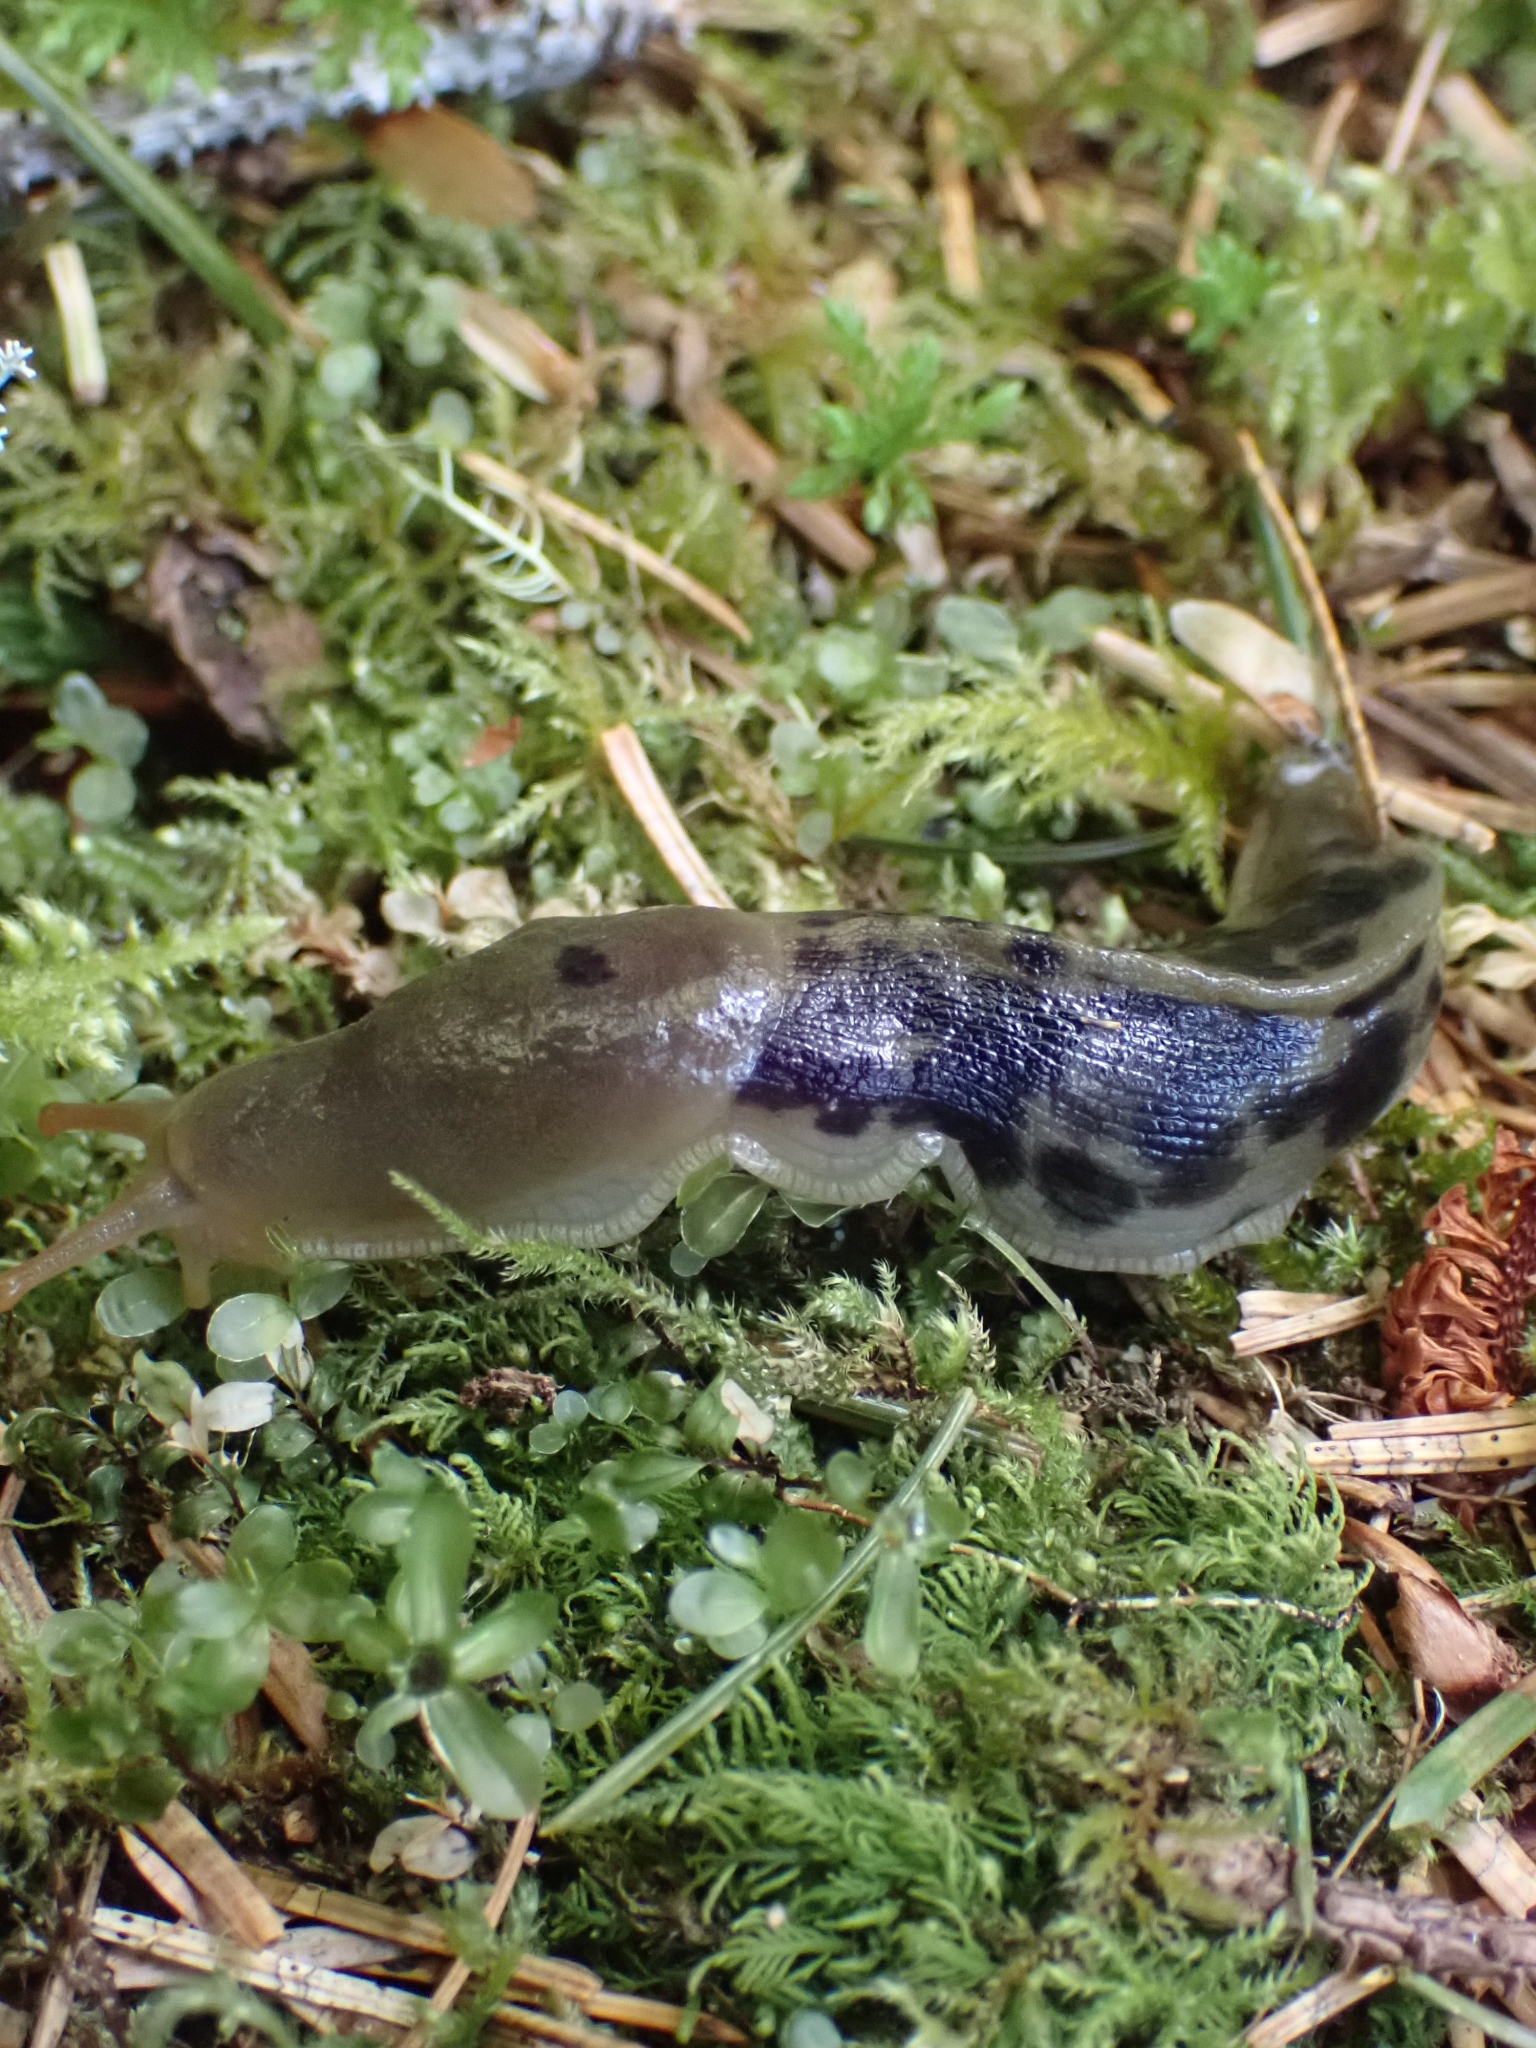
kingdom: Animalia
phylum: Mollusca
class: Gastropoda
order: Stylommatophora
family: Ariolimacidae
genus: Ariolimax
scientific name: Ariolimax columbianus
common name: Pacific banana slug
